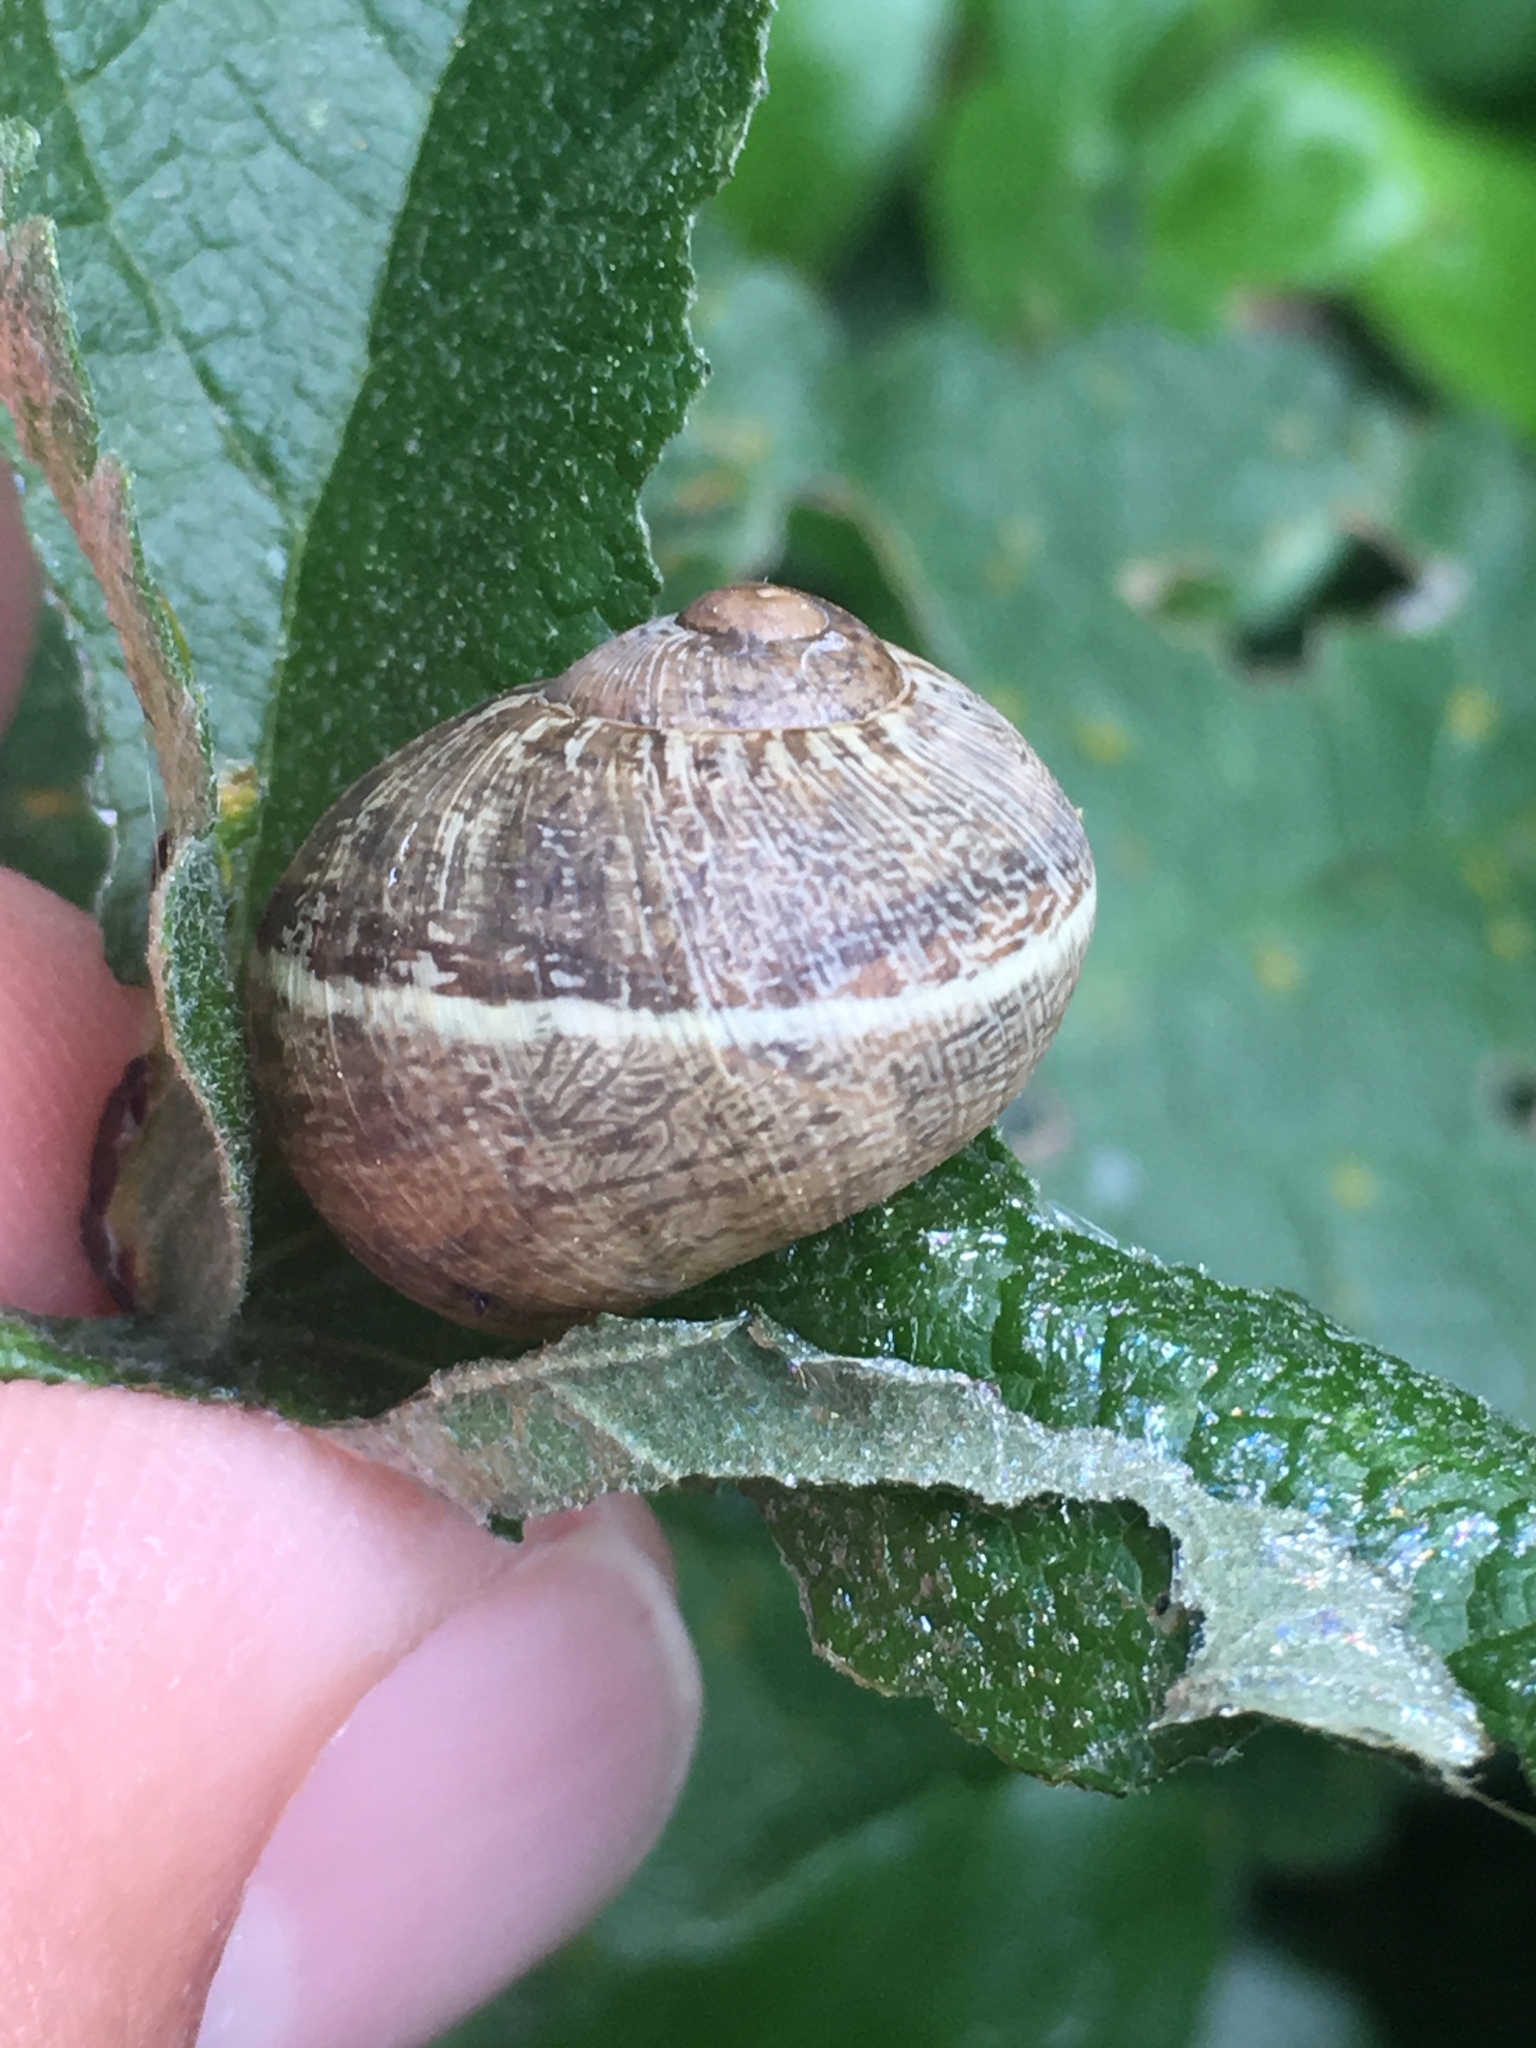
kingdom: Animalia
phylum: Mollusca
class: Gastropoda
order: Stylommatophora
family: Helicidae
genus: Cornu
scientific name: Cornu aspersum
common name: Brown garden snail
